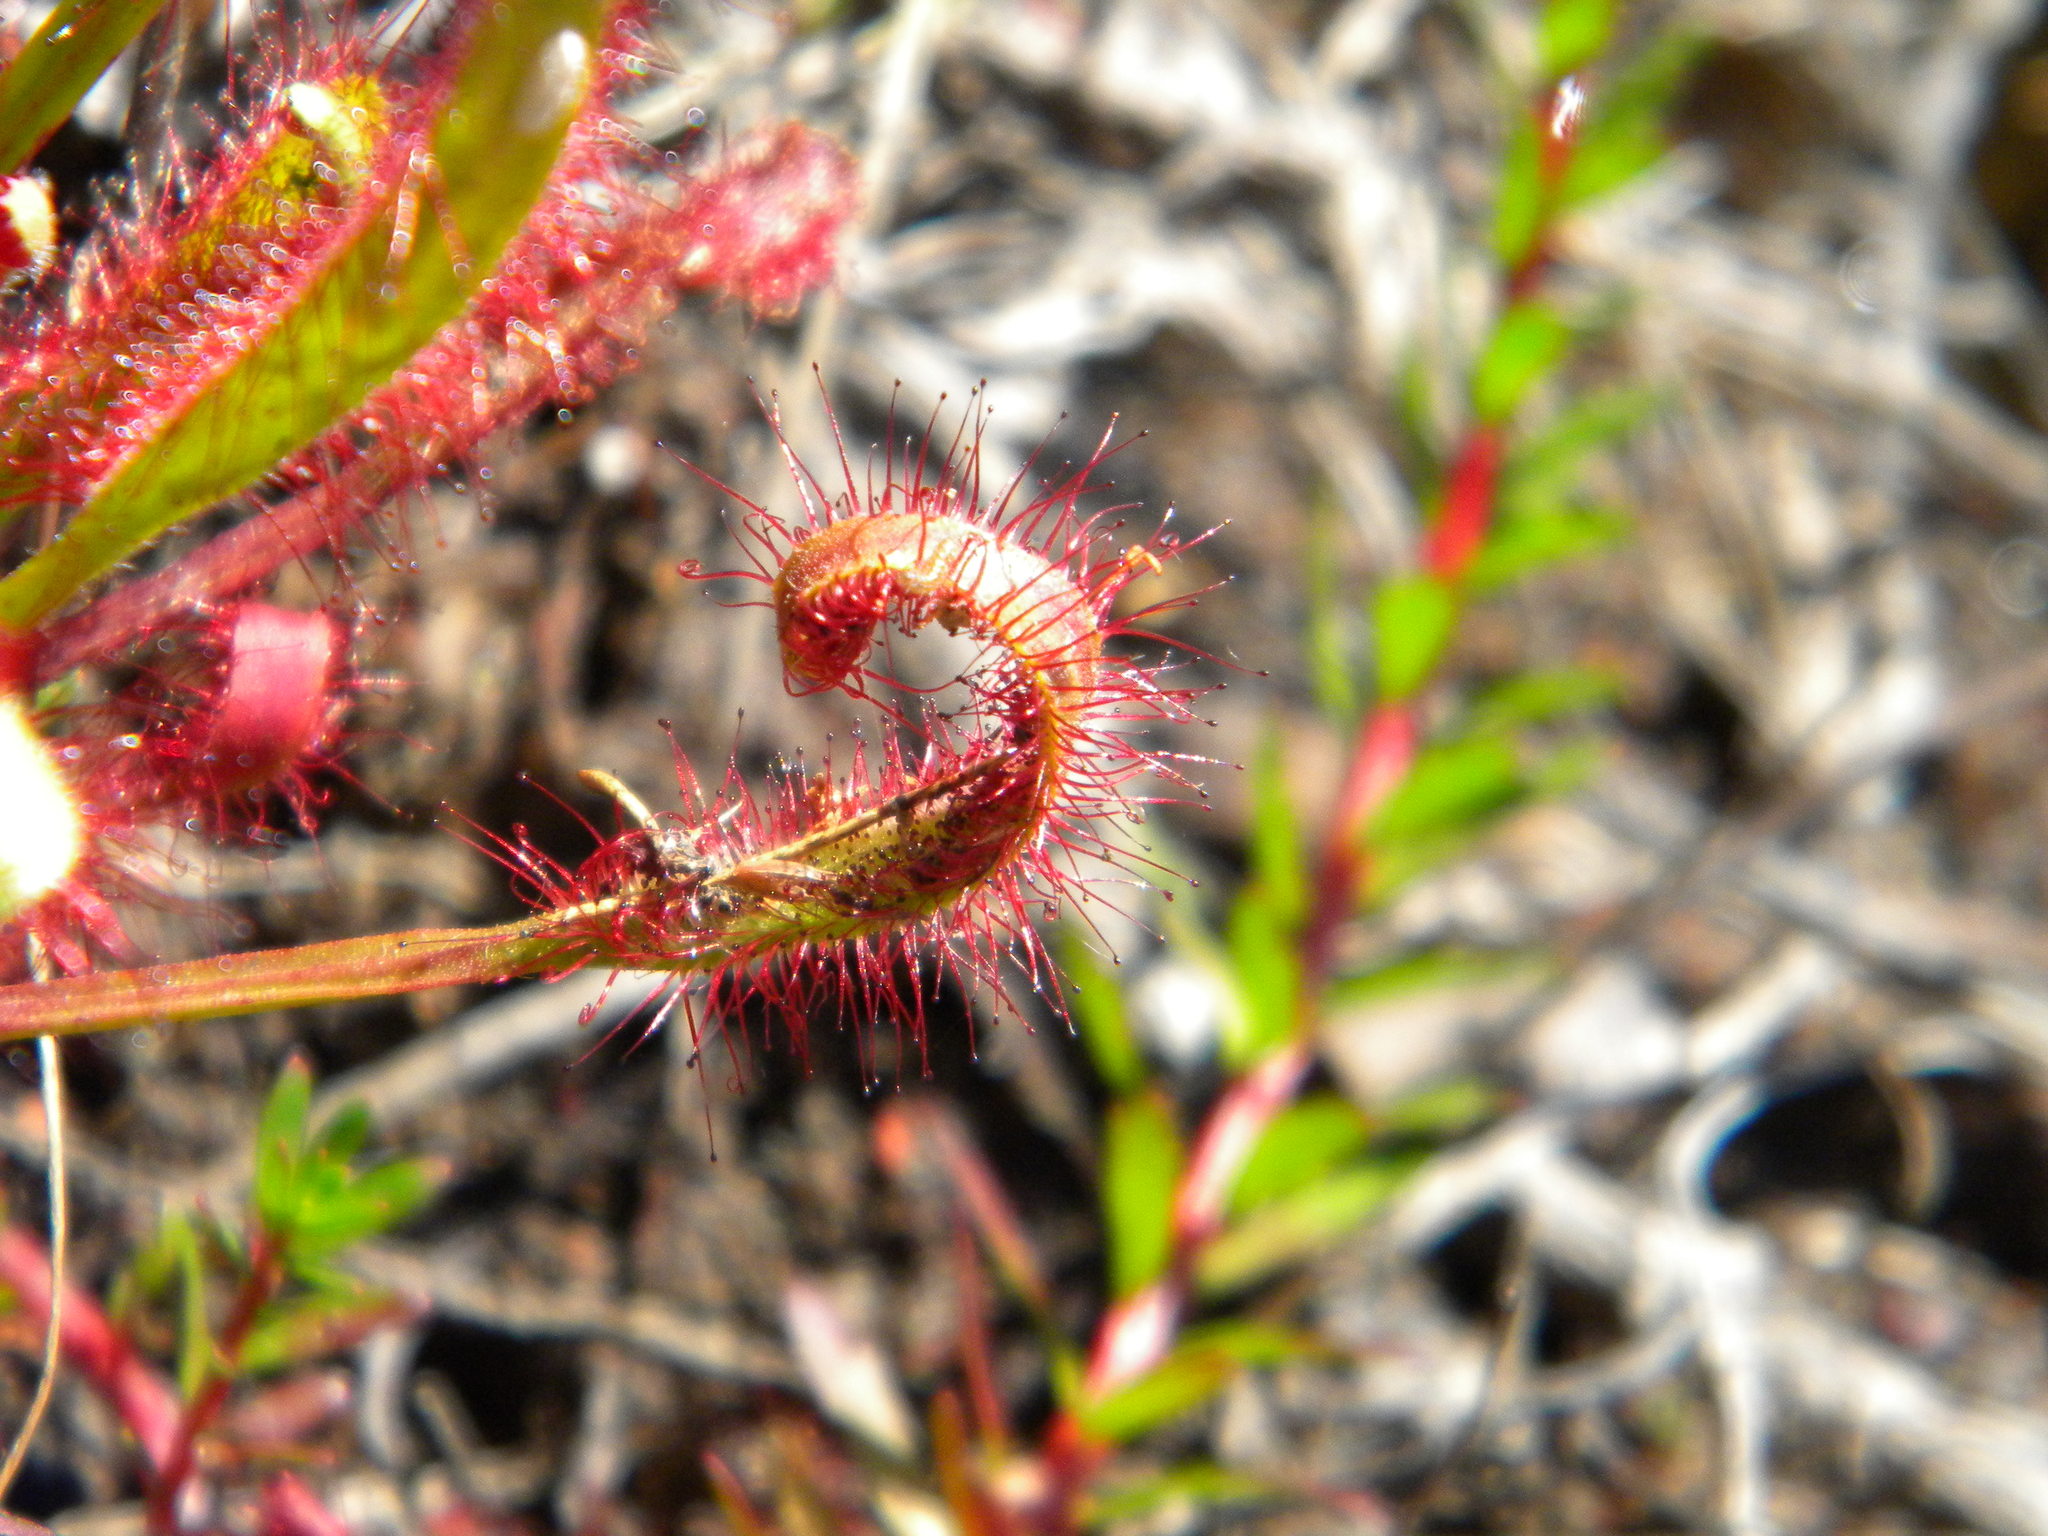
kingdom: Plantae
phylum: Tracheophyta
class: Magnoliopsida
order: Caryophyllales
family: Droseraceae
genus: Drosera
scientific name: Drosera capensis
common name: Cape sundew
